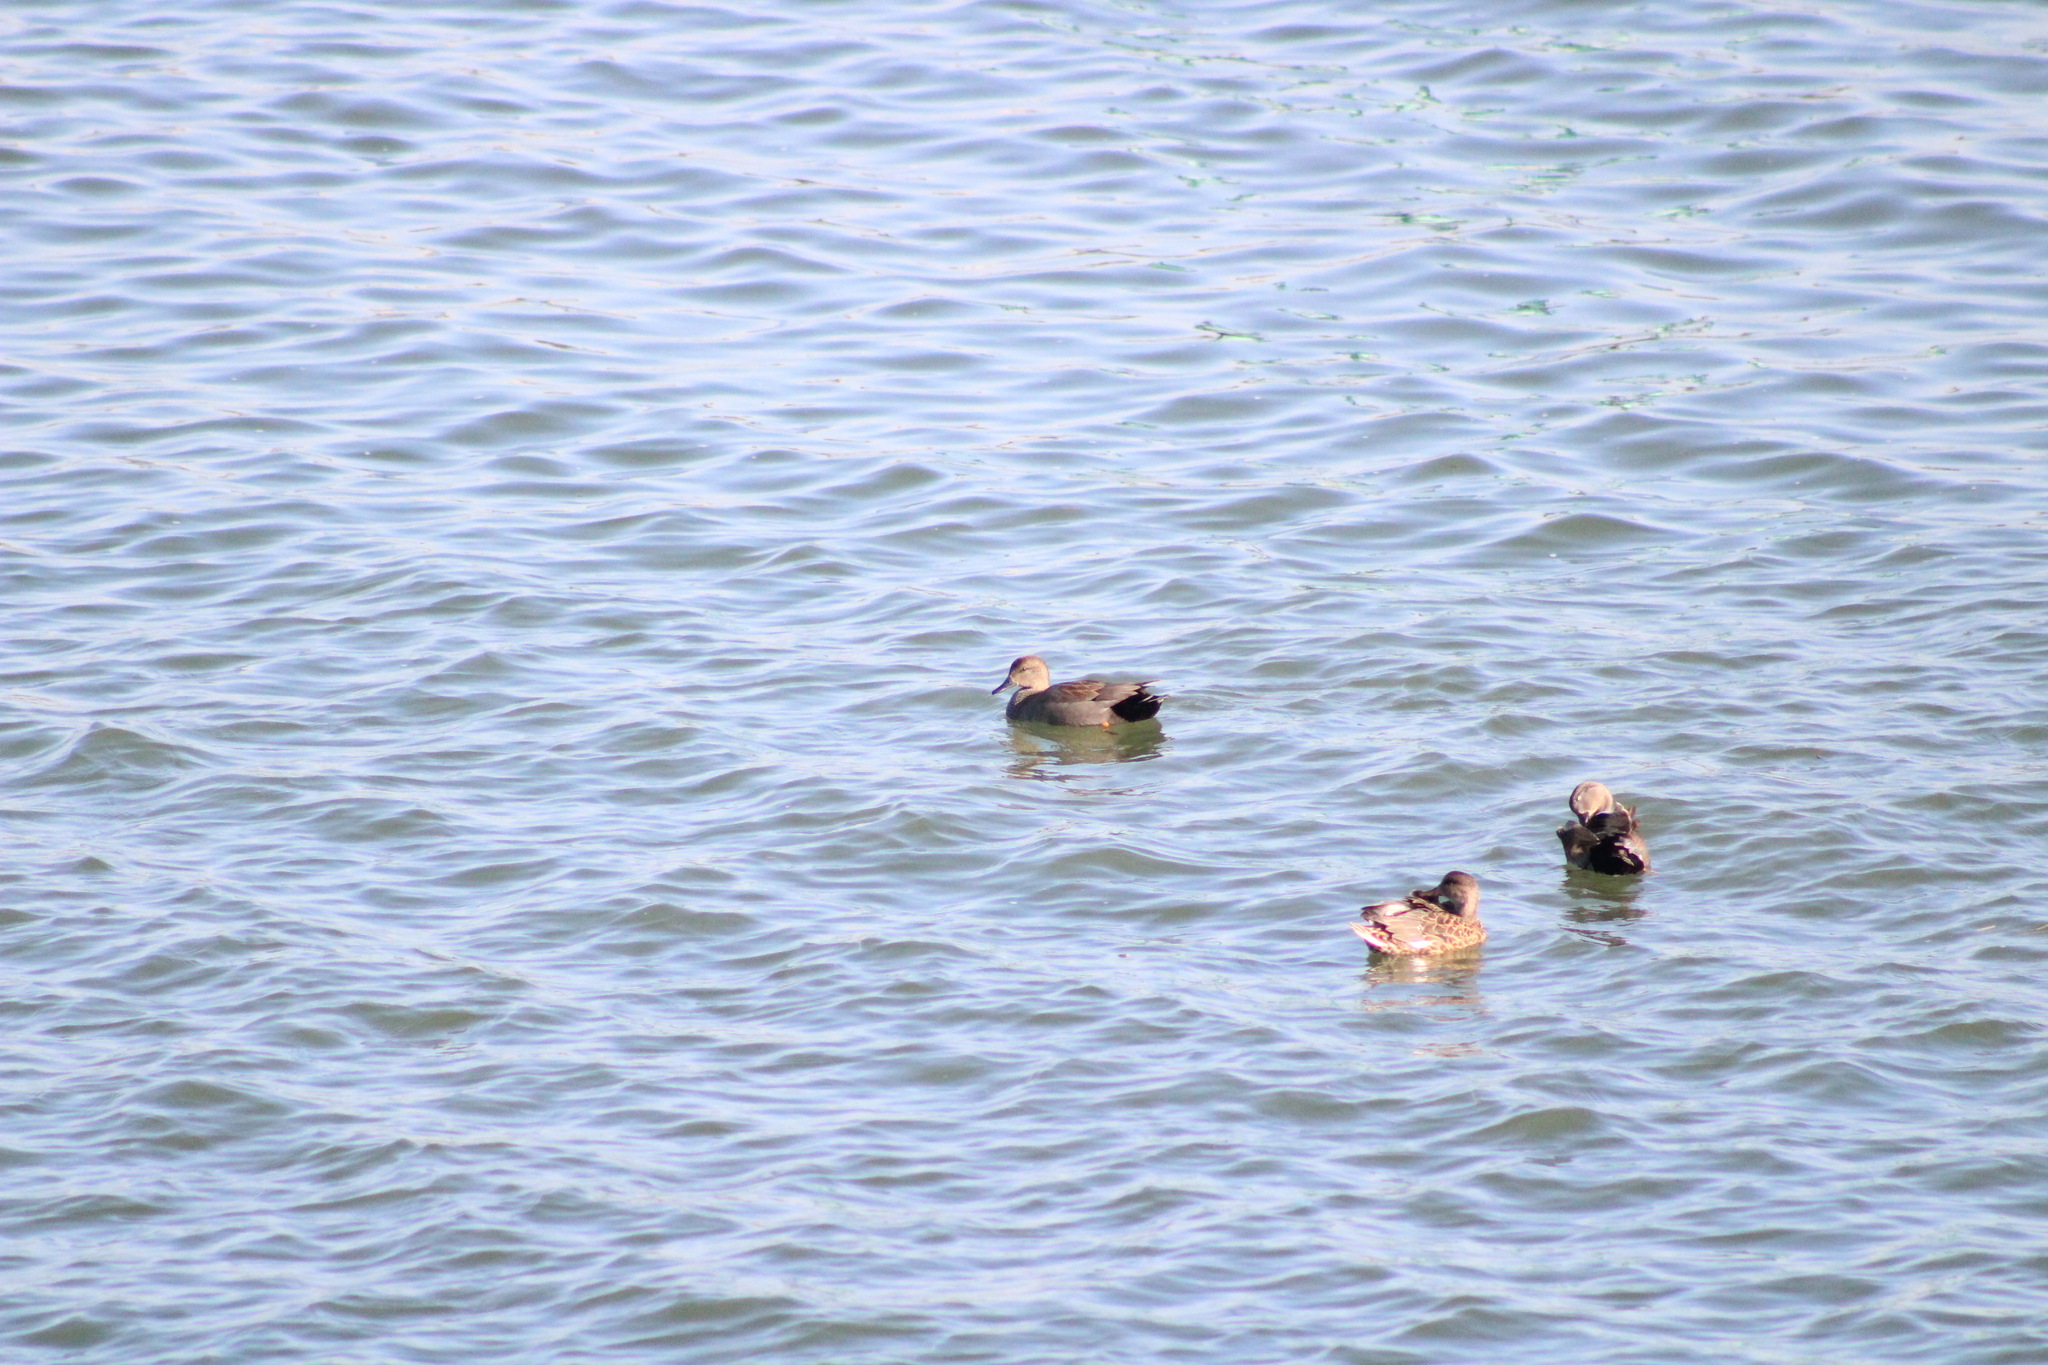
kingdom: Animalia
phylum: Chordata
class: Aves
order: Anseriformes
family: Anatidae
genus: Mareca
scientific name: Mareca strepera
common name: Gadwall
